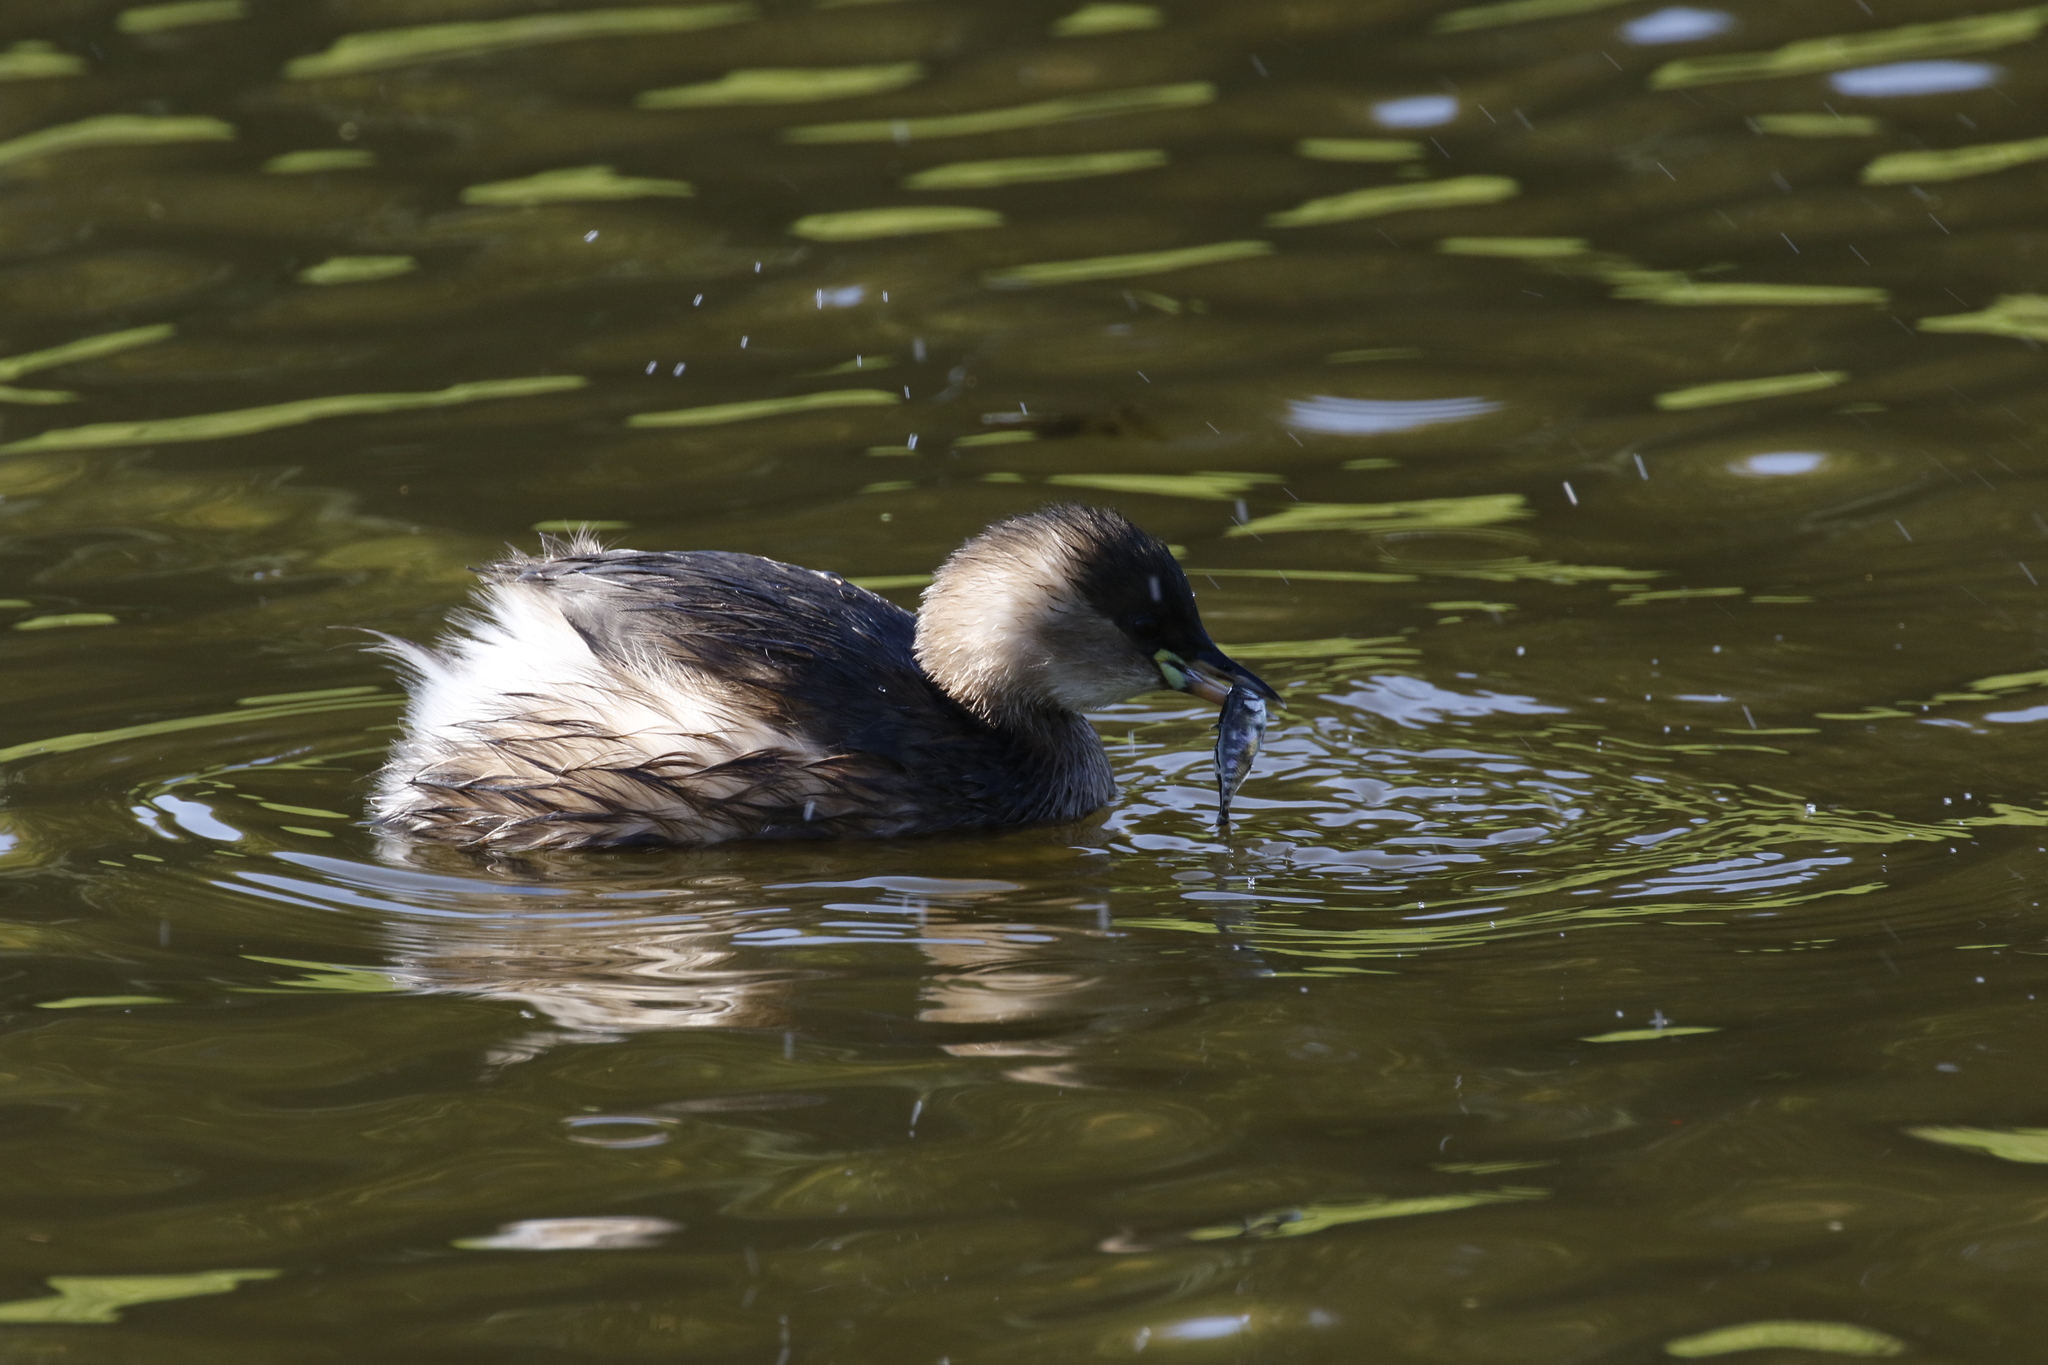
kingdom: Animalia
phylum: Chordata
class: Aves
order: Podicipediformes
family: Podicipedidae
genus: Tachybaptus
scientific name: Tachybaptus ruficollis
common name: Little grebe
